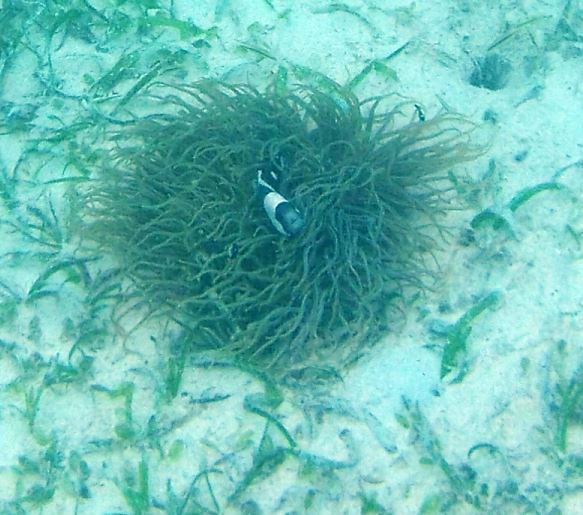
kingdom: Animalia
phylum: Cnidaria
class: Anthozoa
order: Actiniaria
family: Heteractidae
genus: Heteractis
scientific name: Heteractis
